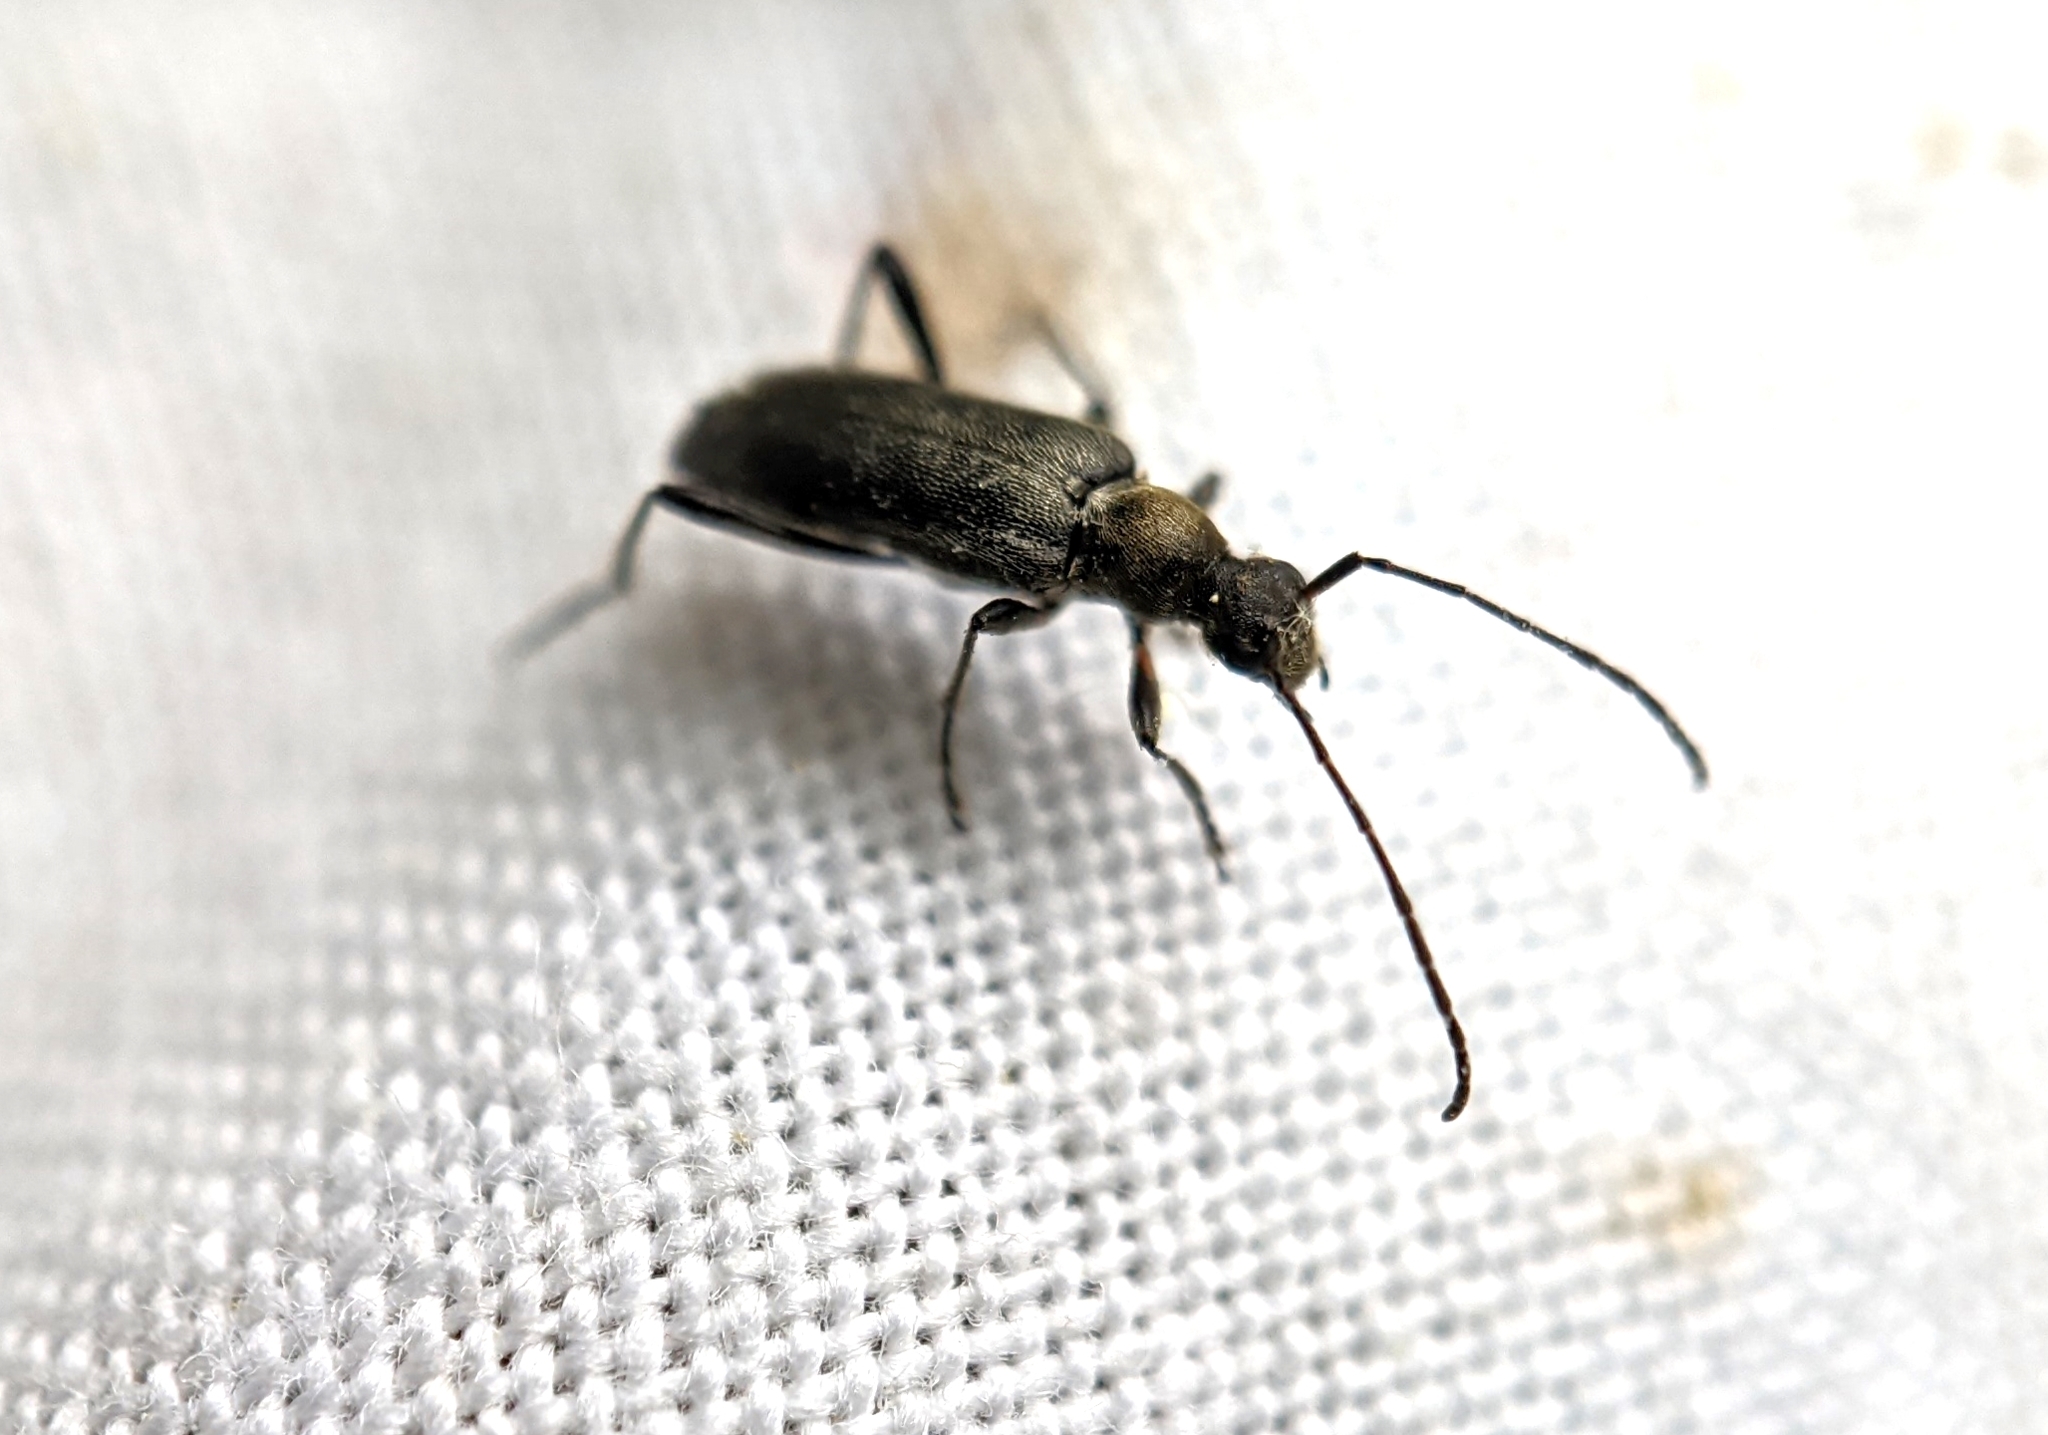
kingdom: Animalia
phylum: Arthropoda
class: Insecta
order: Coleoptera
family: Cerambycidae
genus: Grammoptera
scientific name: Grammoptera ruficornis
